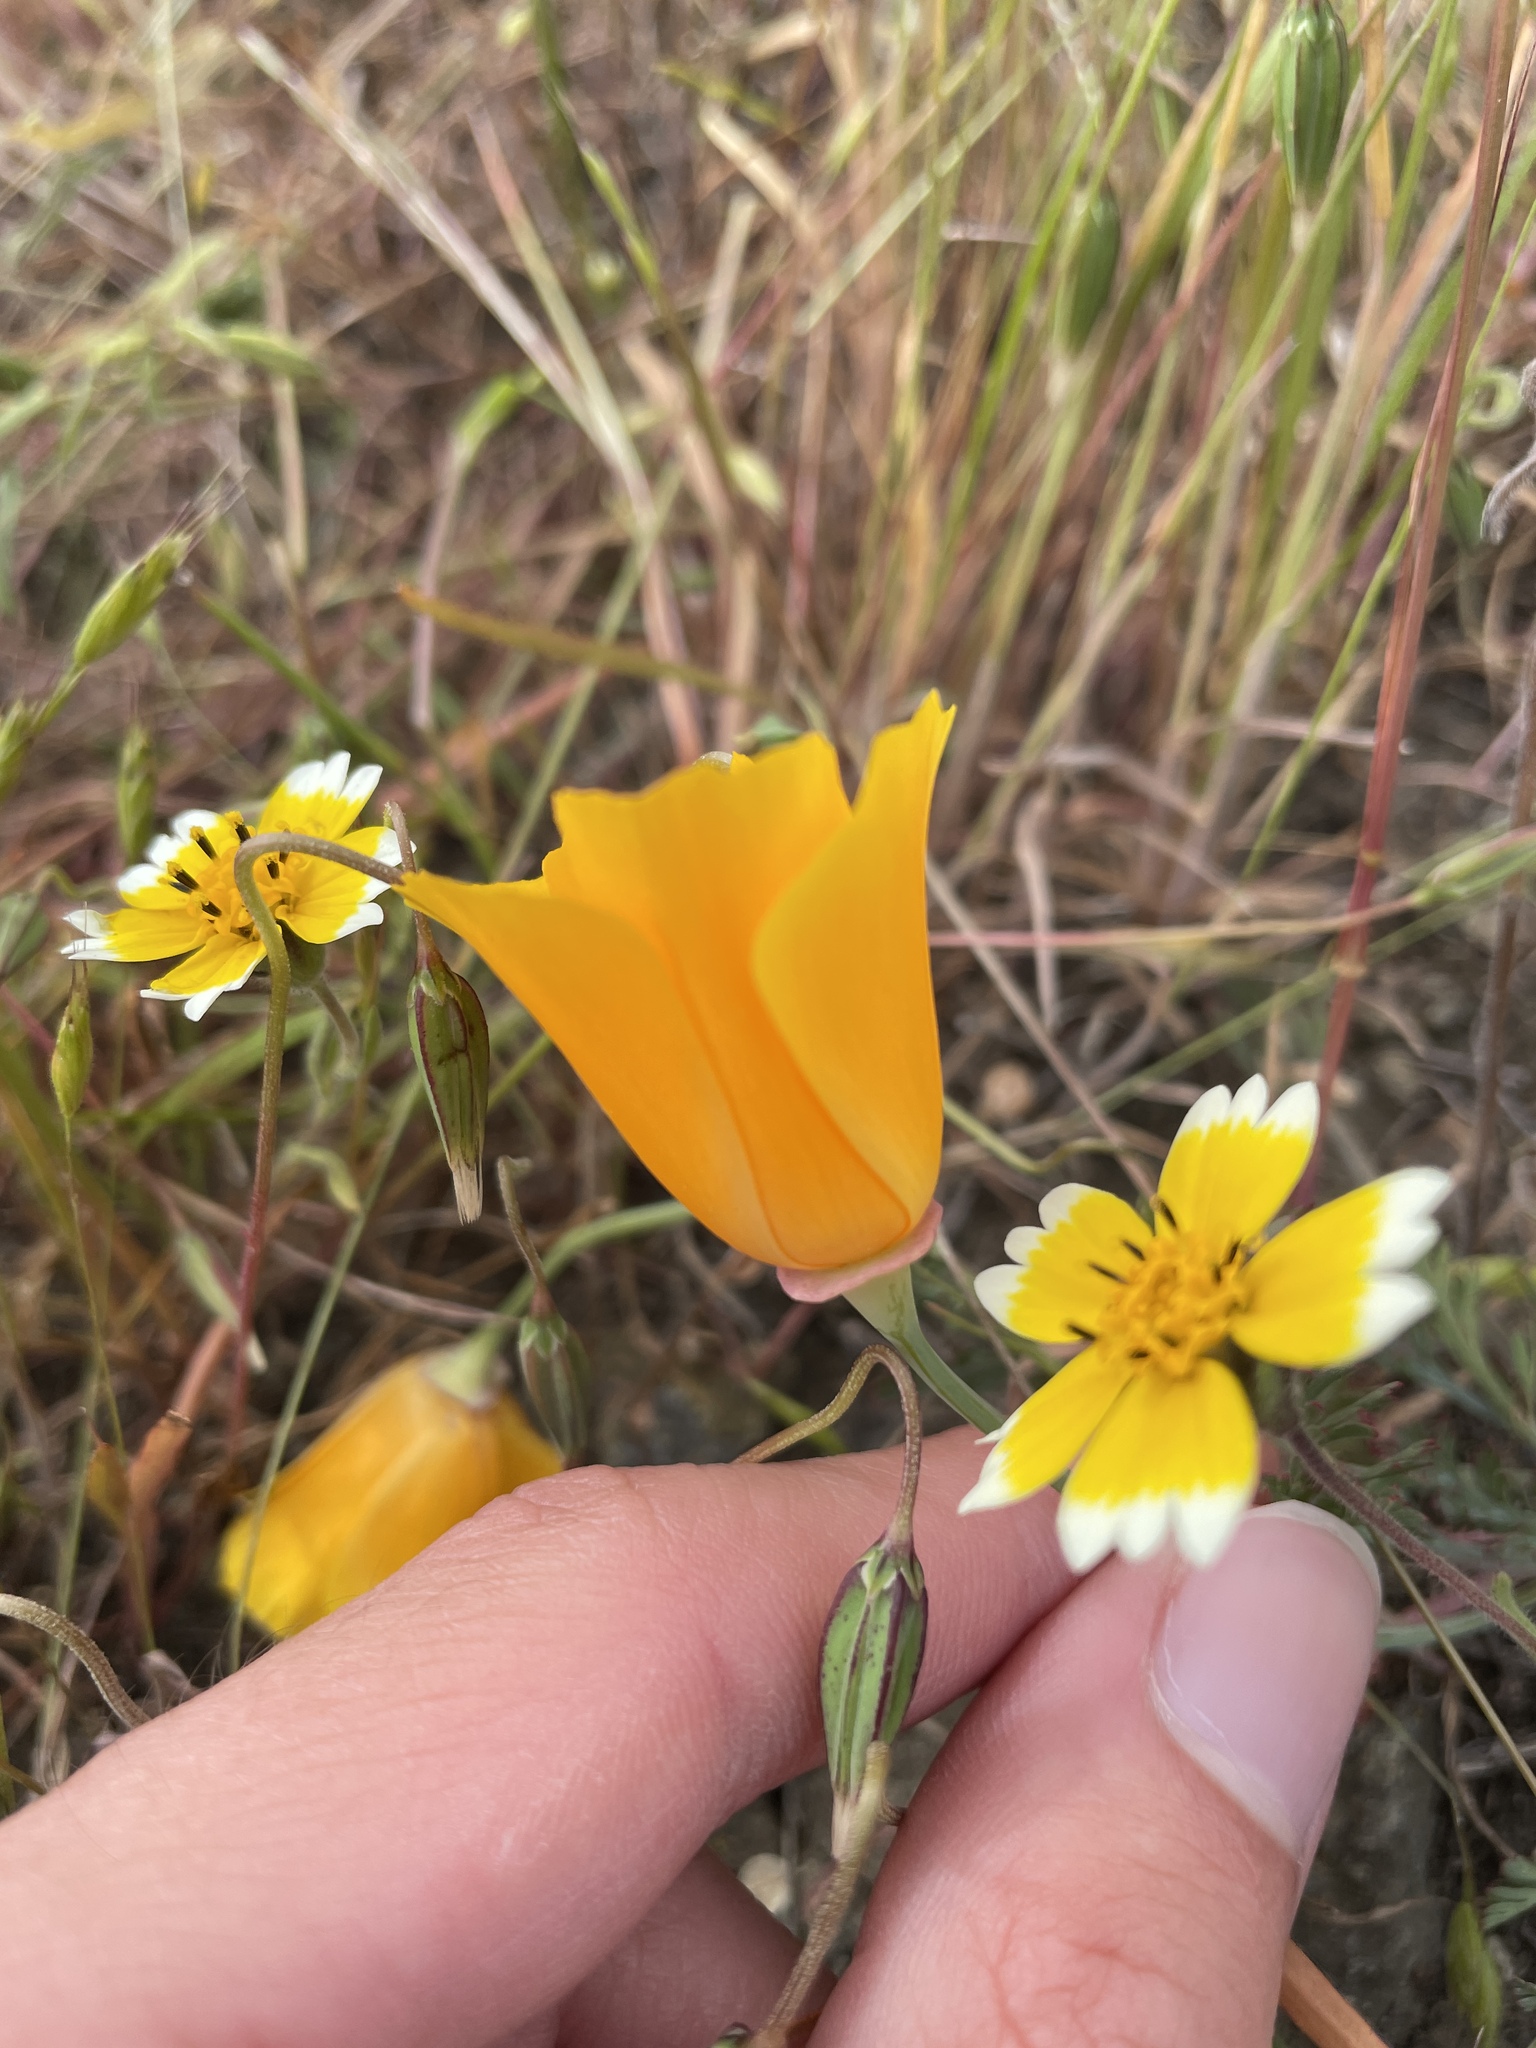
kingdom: Plantae
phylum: Tracheophyta
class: Magnoliopsida
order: Ranunculales
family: Papaveraceae
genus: Eschscholzia
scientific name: Eschscholzia californica
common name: California poppy
